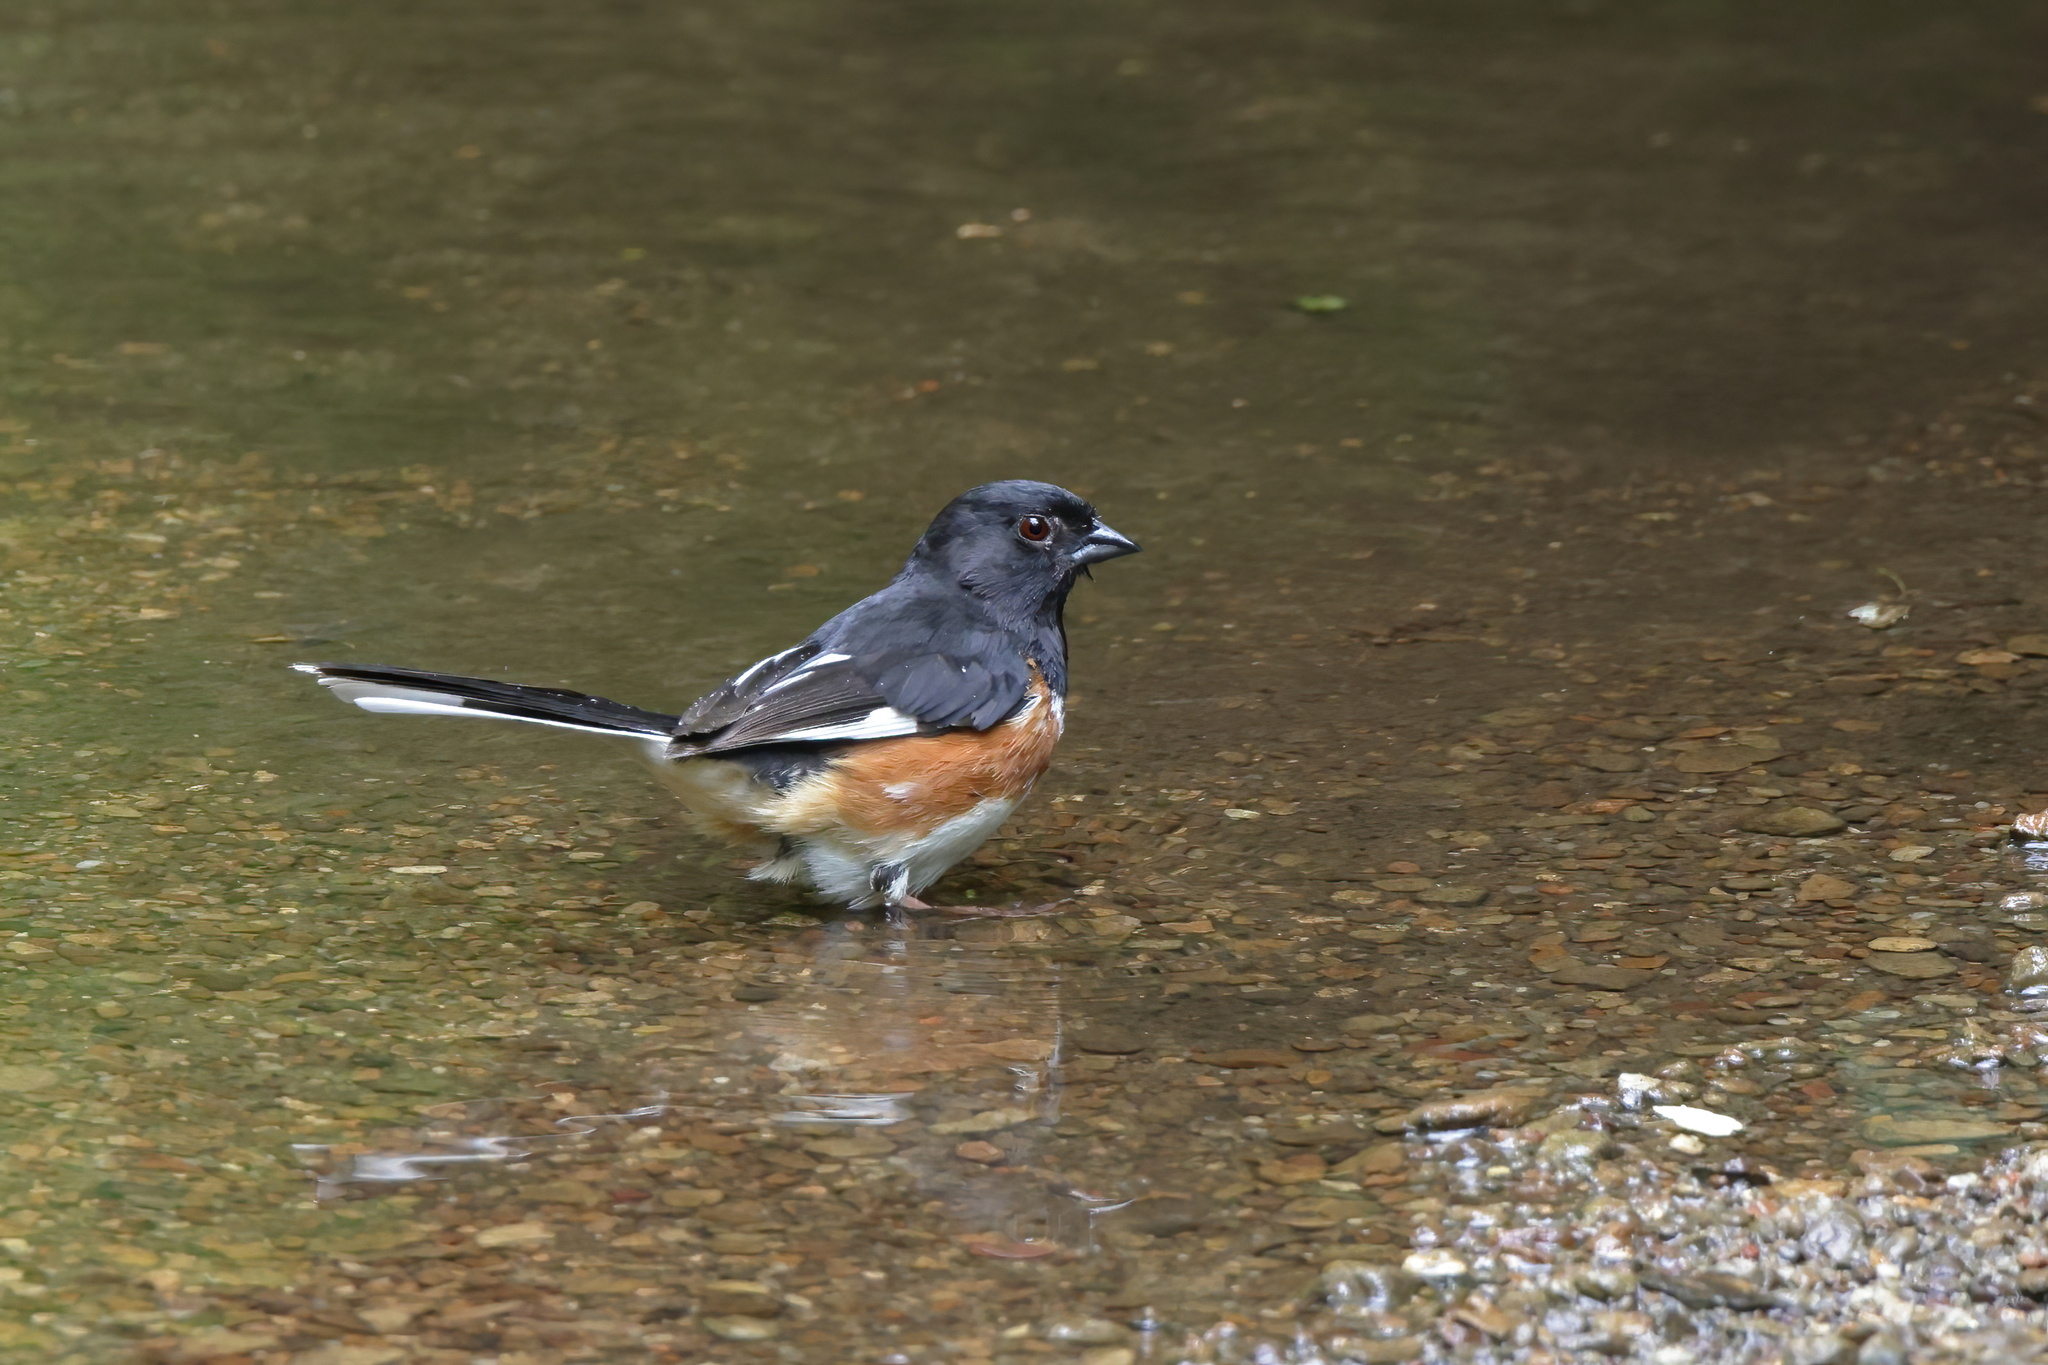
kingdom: Animalia
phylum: Chordata
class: Aves
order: Passeriformes
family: Passerellidae
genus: Pipilo
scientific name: Pipilo erythrophthalmus
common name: Eastern towhee
